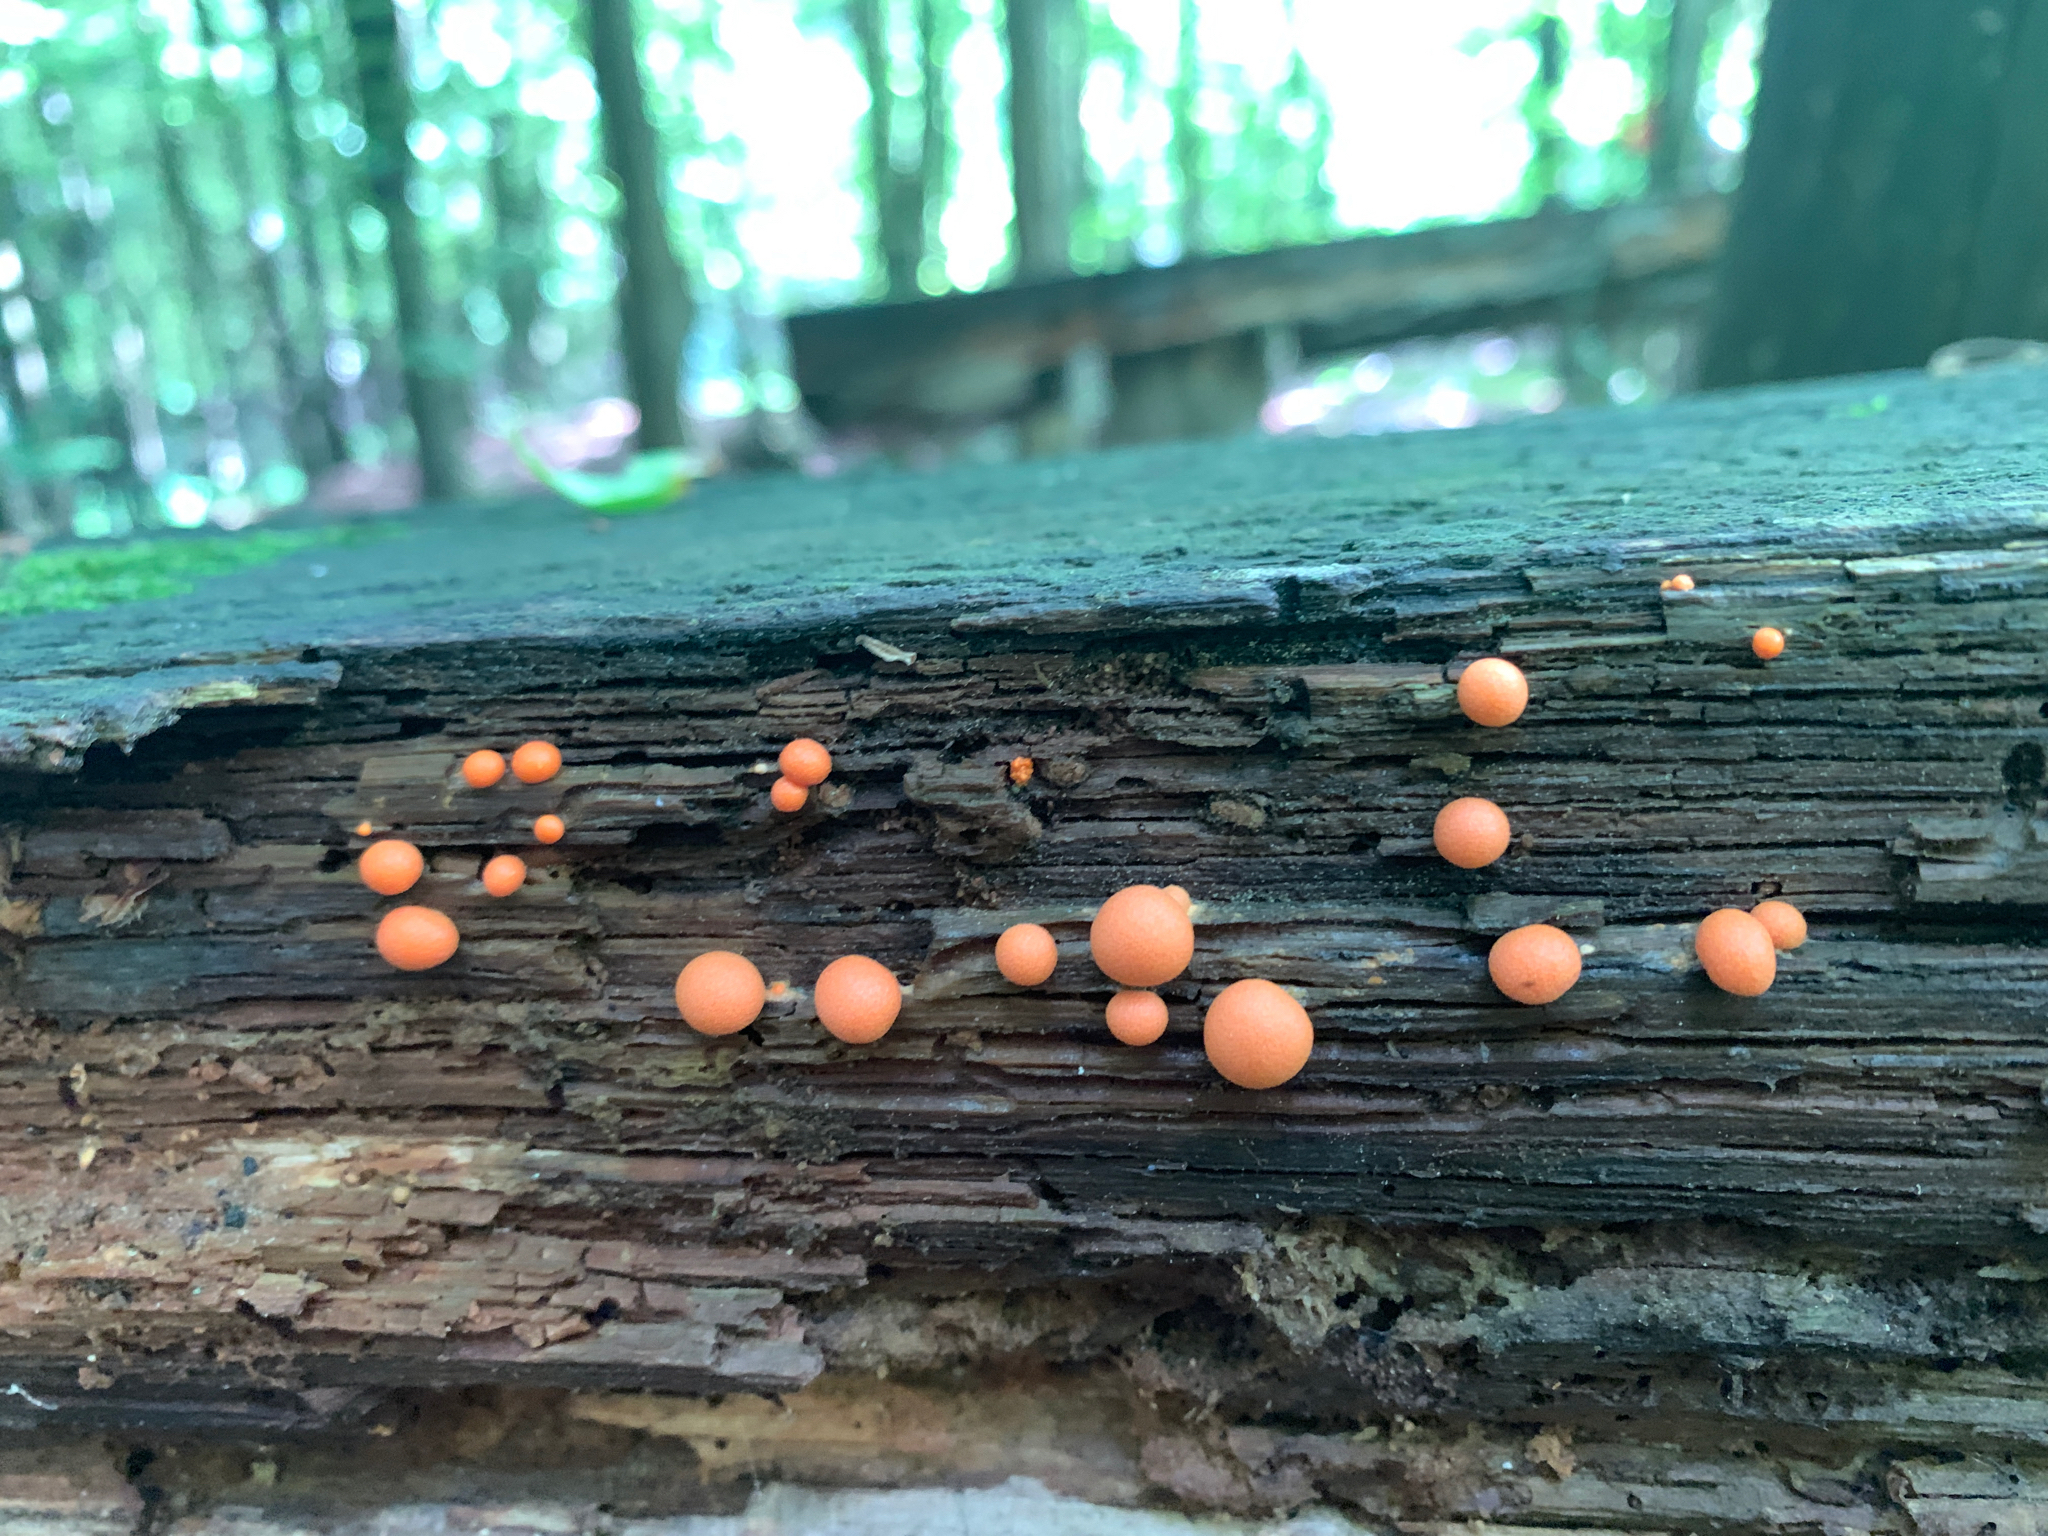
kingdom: Protozoa
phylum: Mycetozoa
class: Myxomycetes
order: Cribrariales
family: Tubiferaceae
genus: Lycogala
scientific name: Lycogala epidendrum
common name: Wolf's milk
